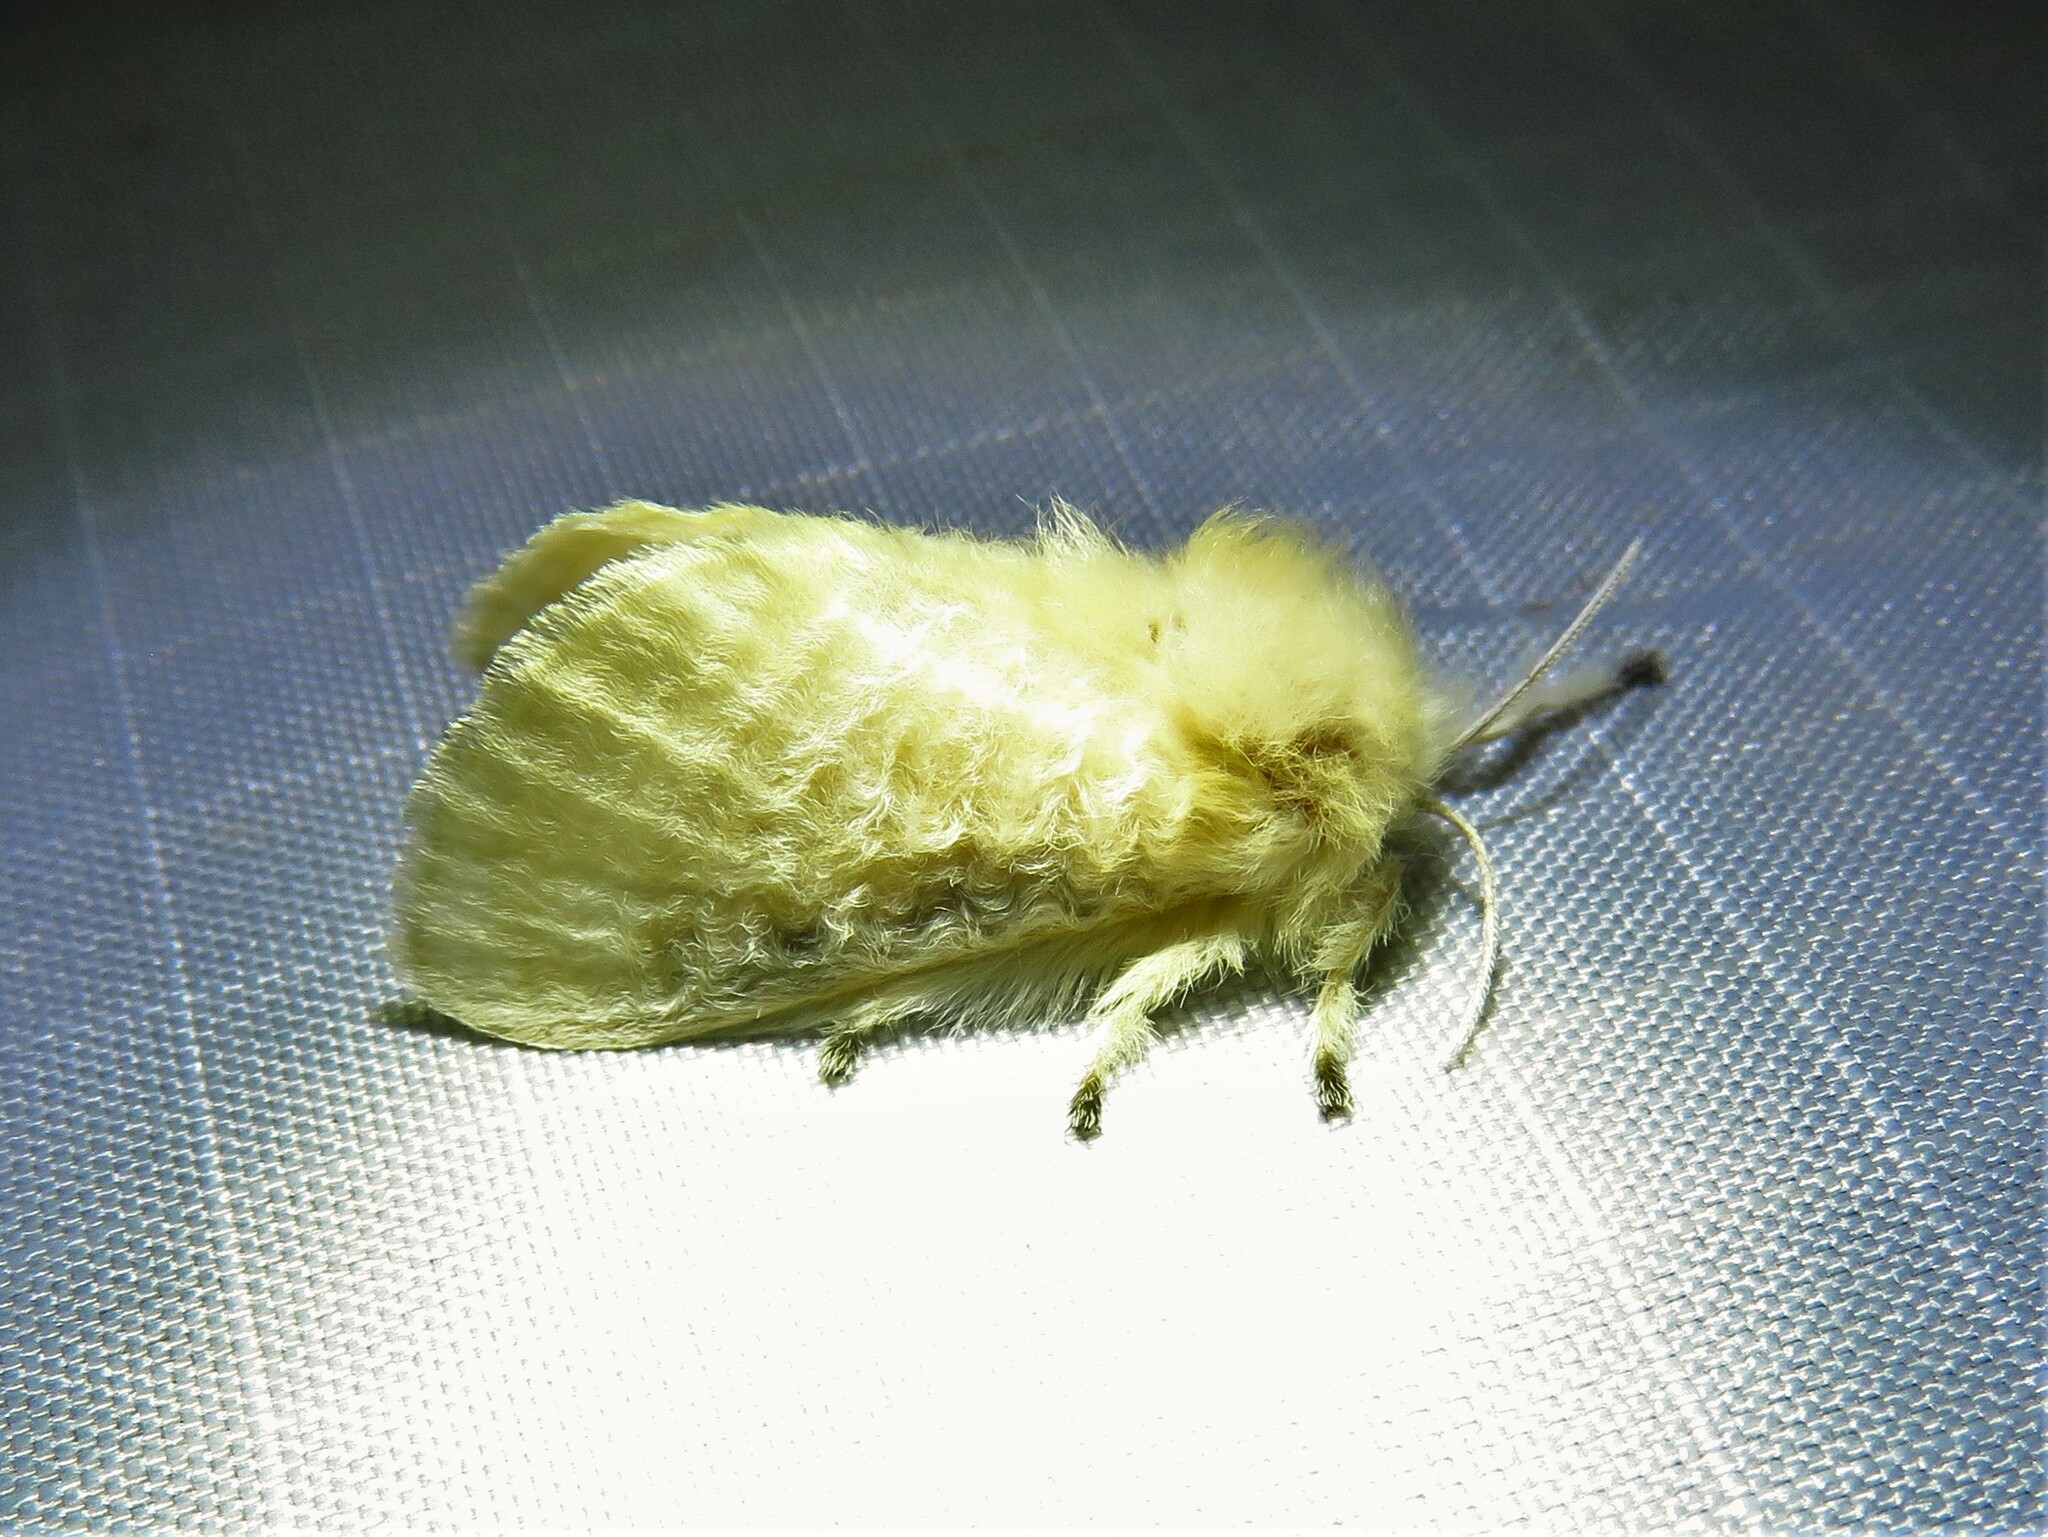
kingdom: Animalia
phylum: Arthropoda
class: Insecta
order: Lepidoptera
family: Megalopygidae
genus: Megalopyge
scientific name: Megalopyge crispata
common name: Black-waved flannel moth
